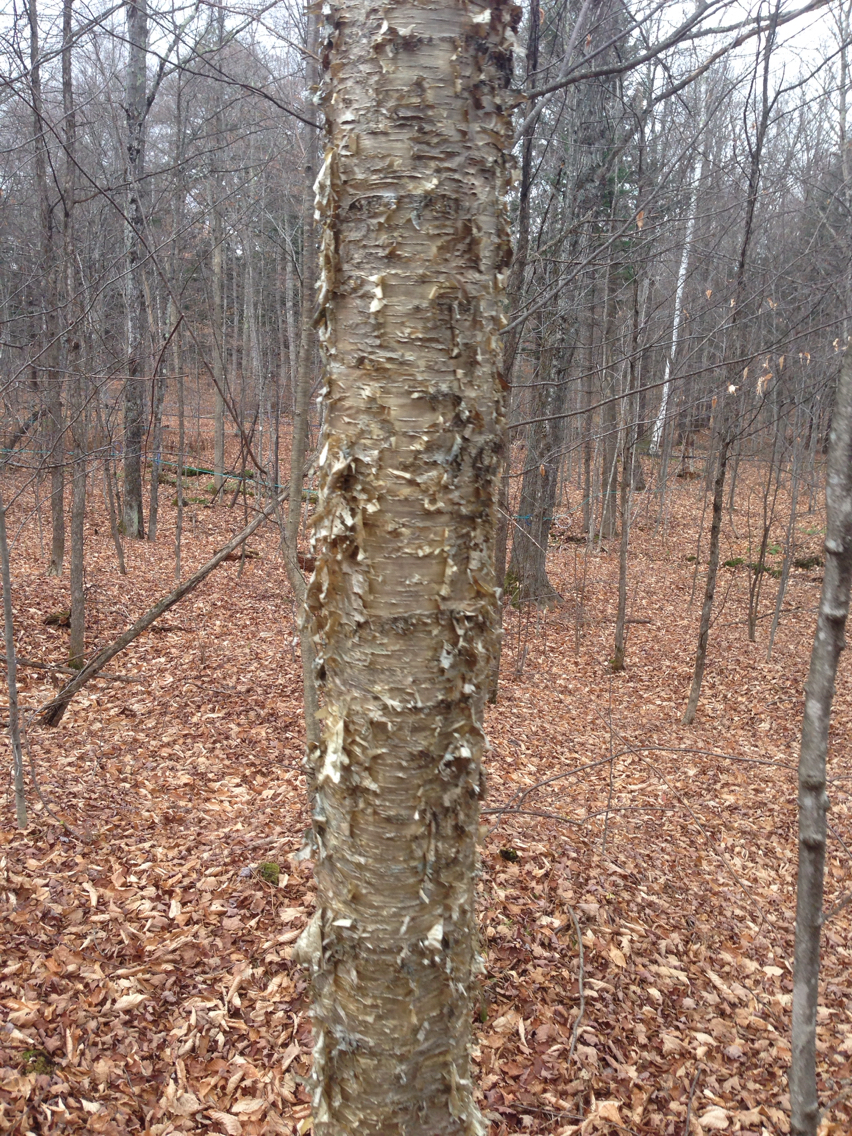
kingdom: Plantae
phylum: Tracheophyta
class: Magnoliopsida
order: Fagales
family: Betulaceae
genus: Betula
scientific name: Betula alleghaniensis
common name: Yellow birch
